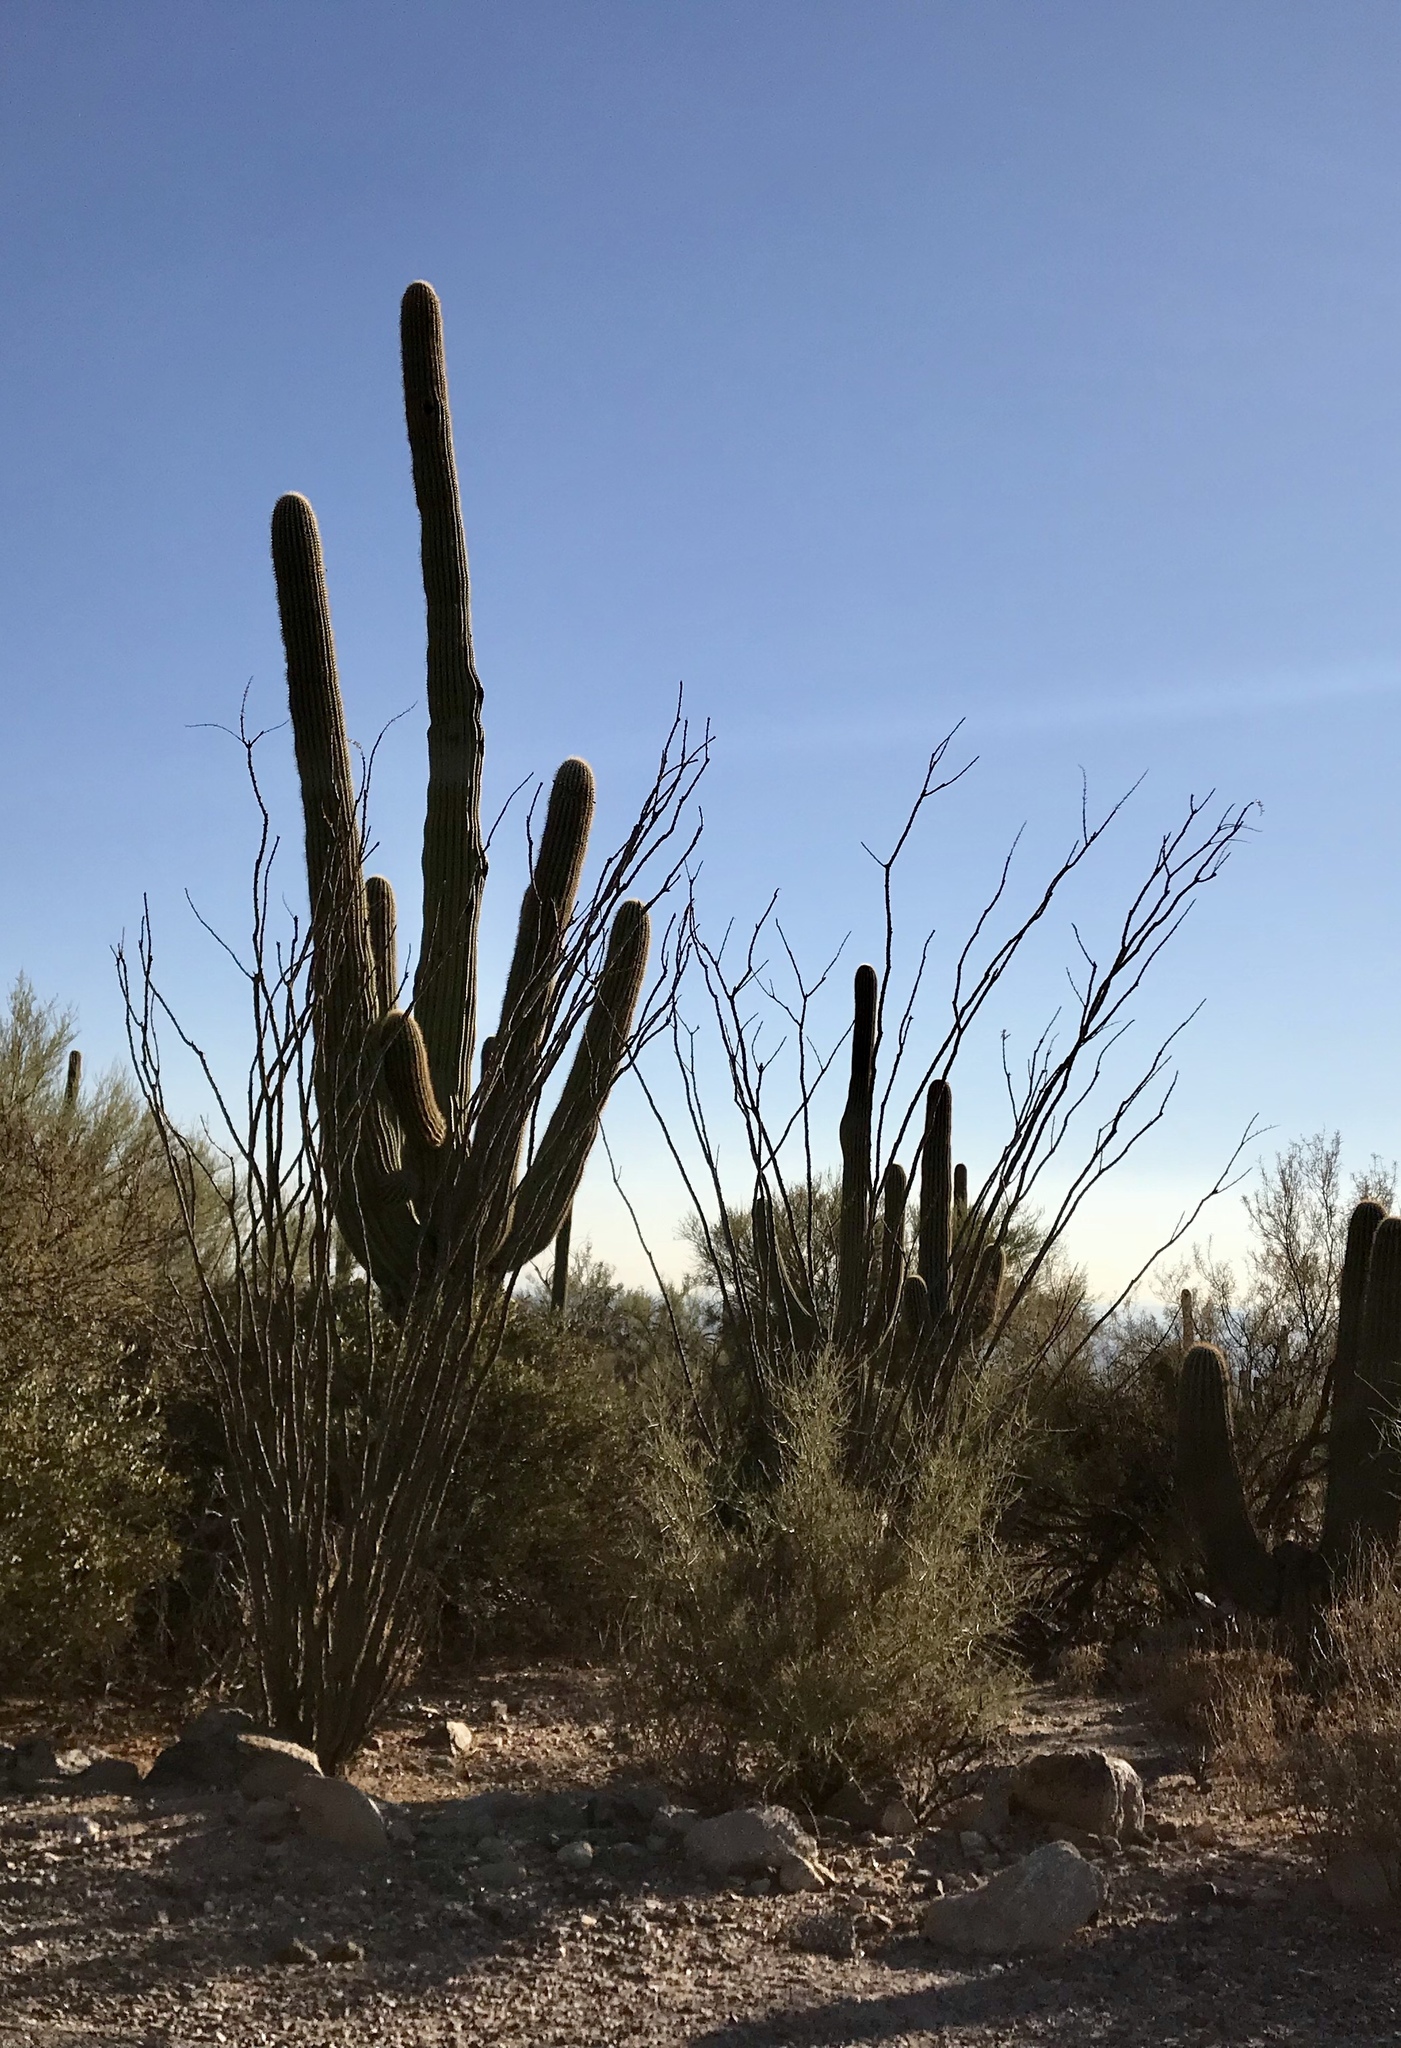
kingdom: Plantae
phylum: Tracheophyta
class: Magnoliopsida
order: Caryophyllales
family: Cactaceae
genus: Carnegiea
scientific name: Carnegiea gigantea
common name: Saguaro
